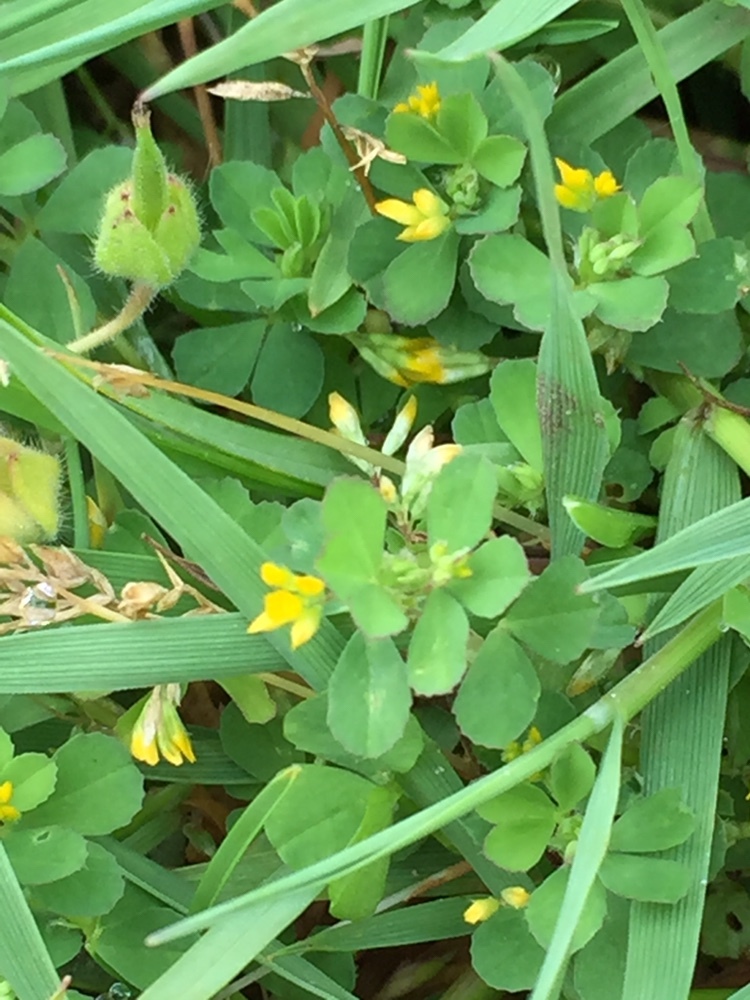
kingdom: Plantae
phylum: Tracheophyta
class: Magnoliopsida
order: Fabales
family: Fabaceae
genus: Trifolium
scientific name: Trifolium dubium
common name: Suckling clover
